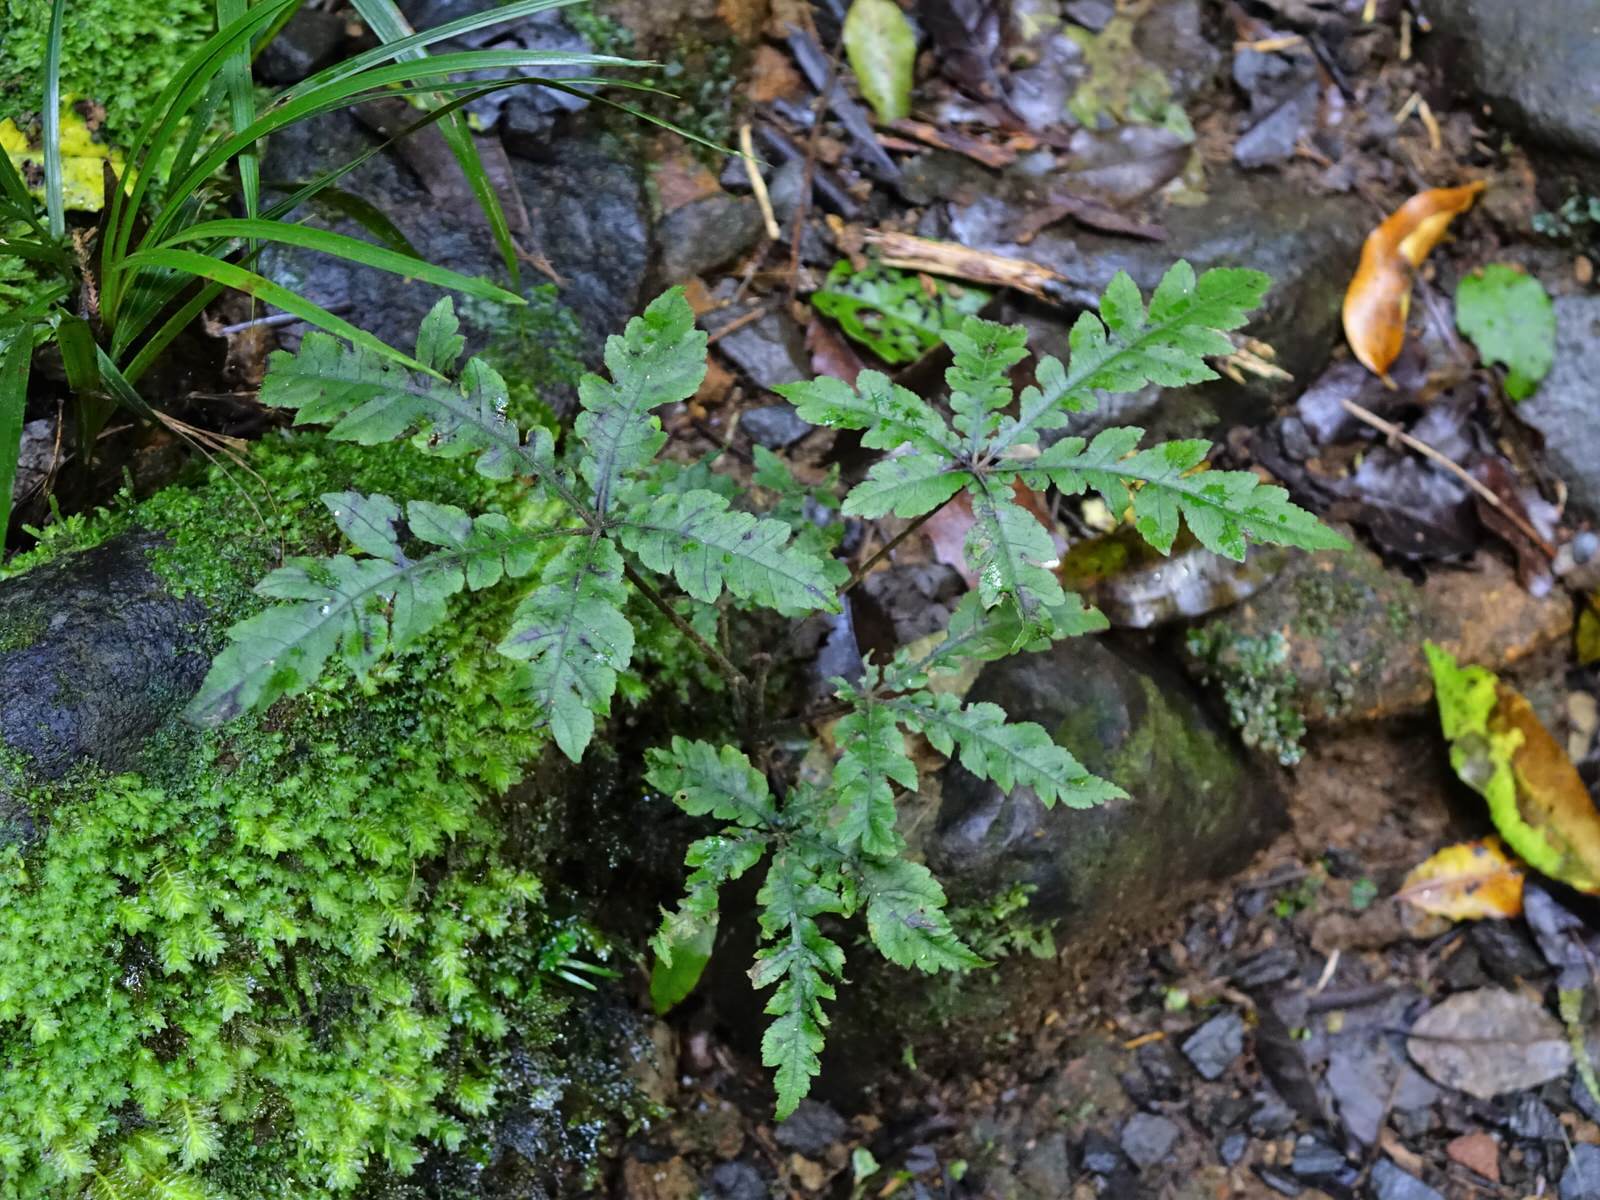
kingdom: Plantae
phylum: Tracheophyta
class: Magnoliopsida
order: Apiales
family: Araliaceae
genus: Schefflera
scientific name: Schefflera digitata
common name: Pate
